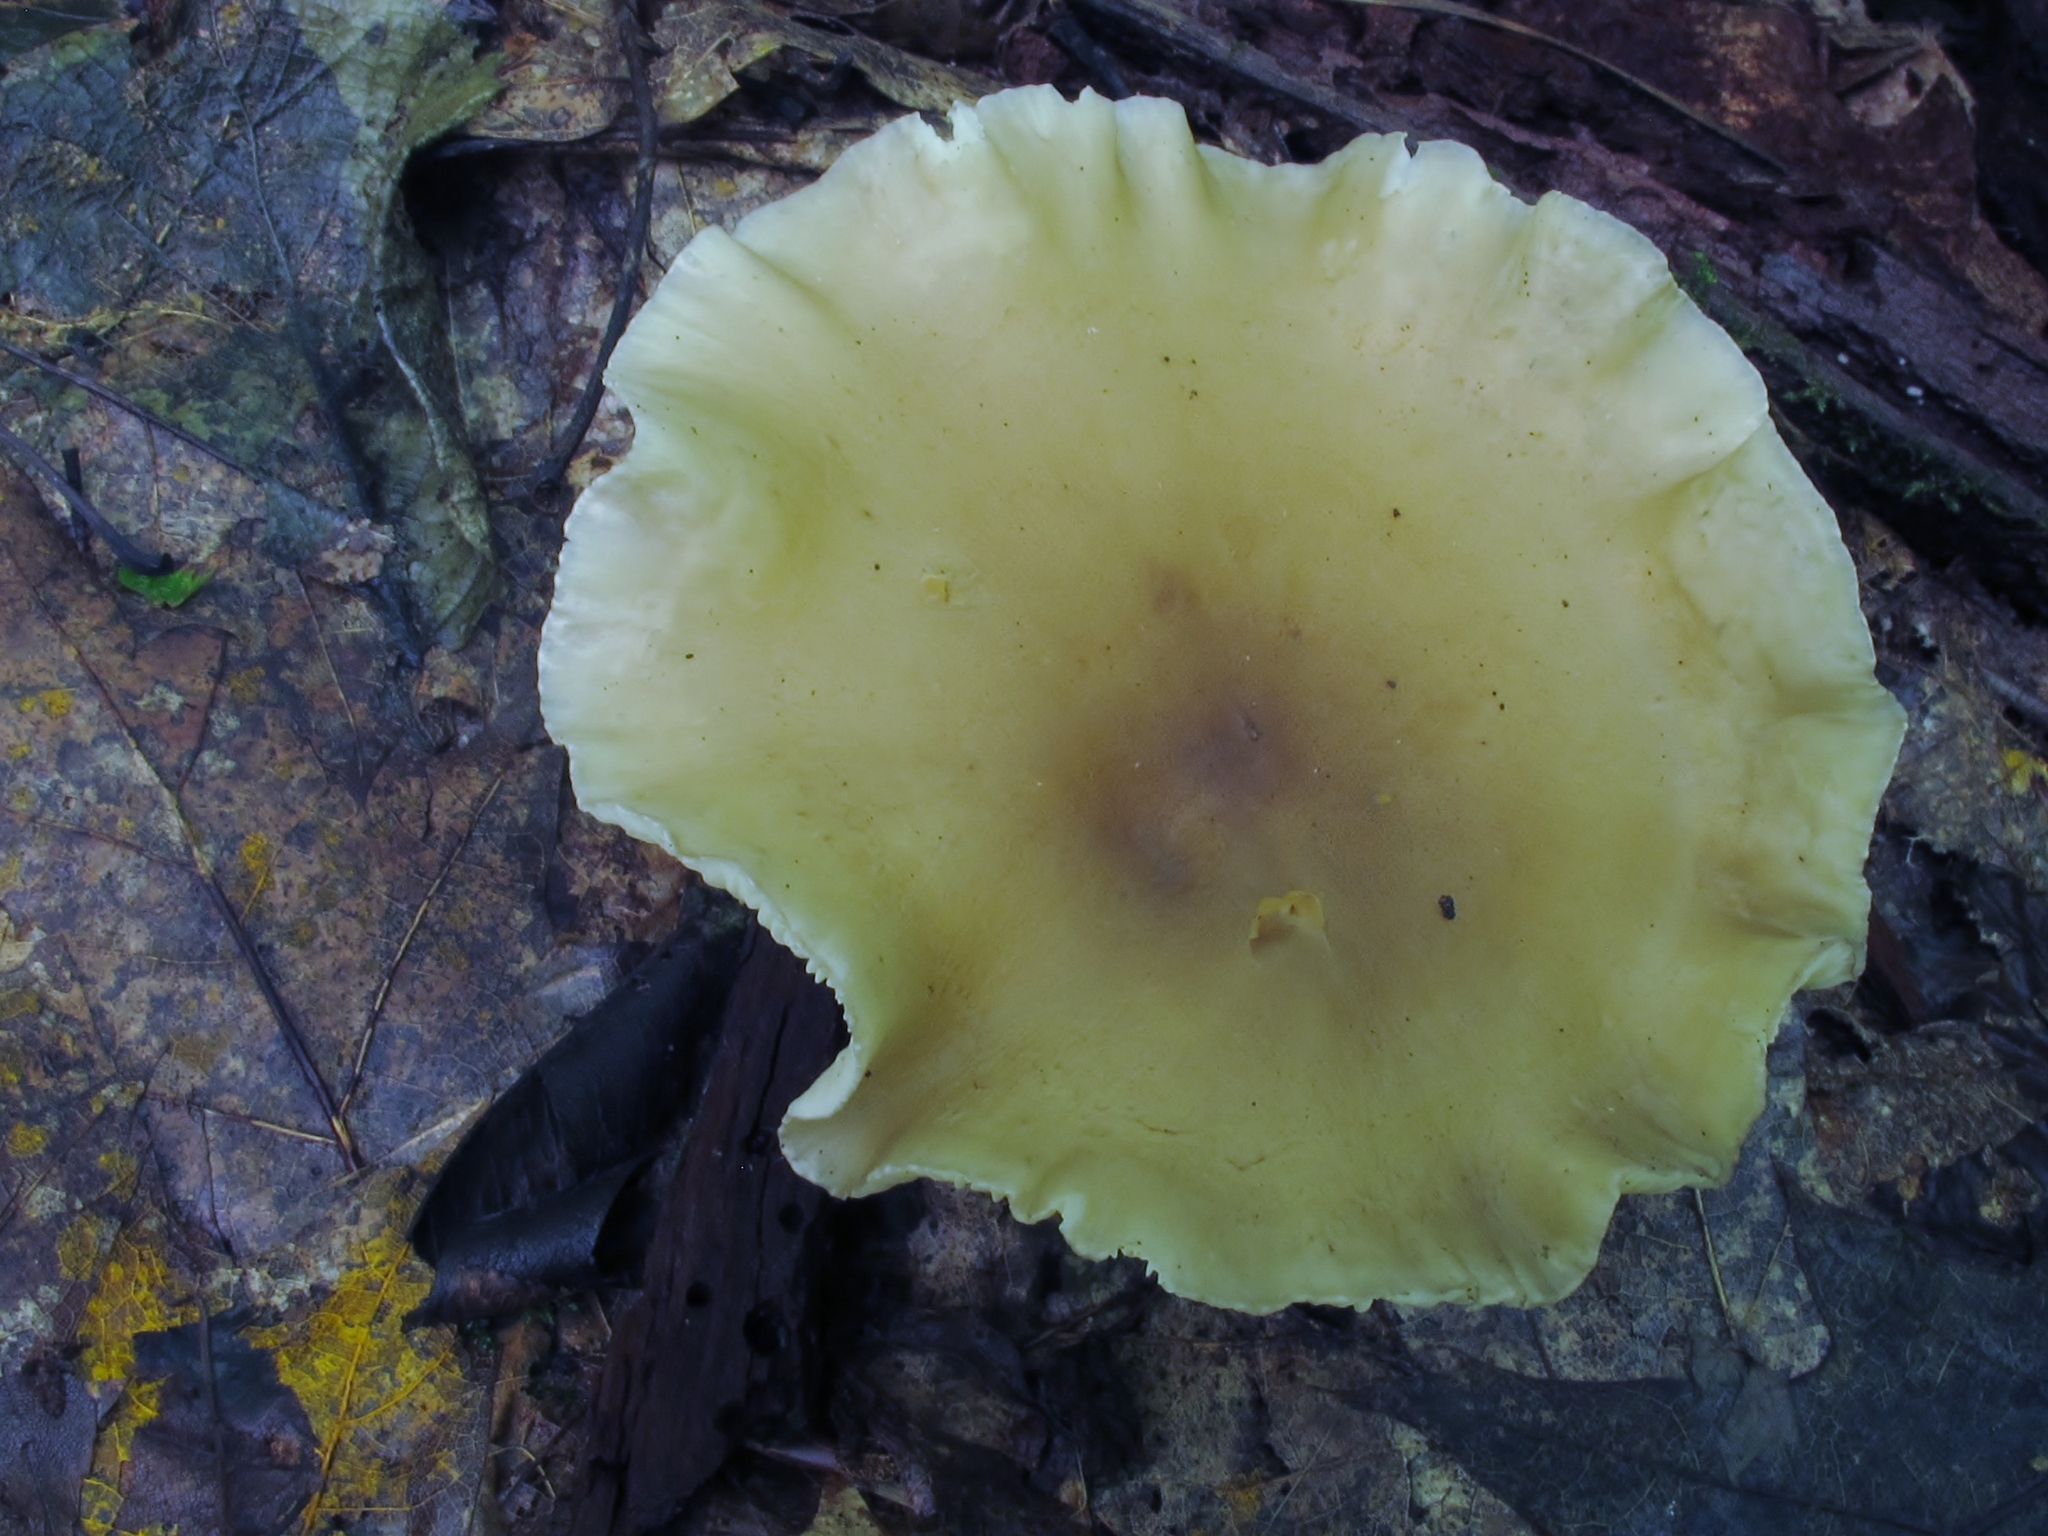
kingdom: Fungi
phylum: Basidiomycota
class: Agaricomycetes
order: Agaricales
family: Hygrophoraceae
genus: Ampulloclitocybe
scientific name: Ampulloclitocybe clavipes
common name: Club foot
